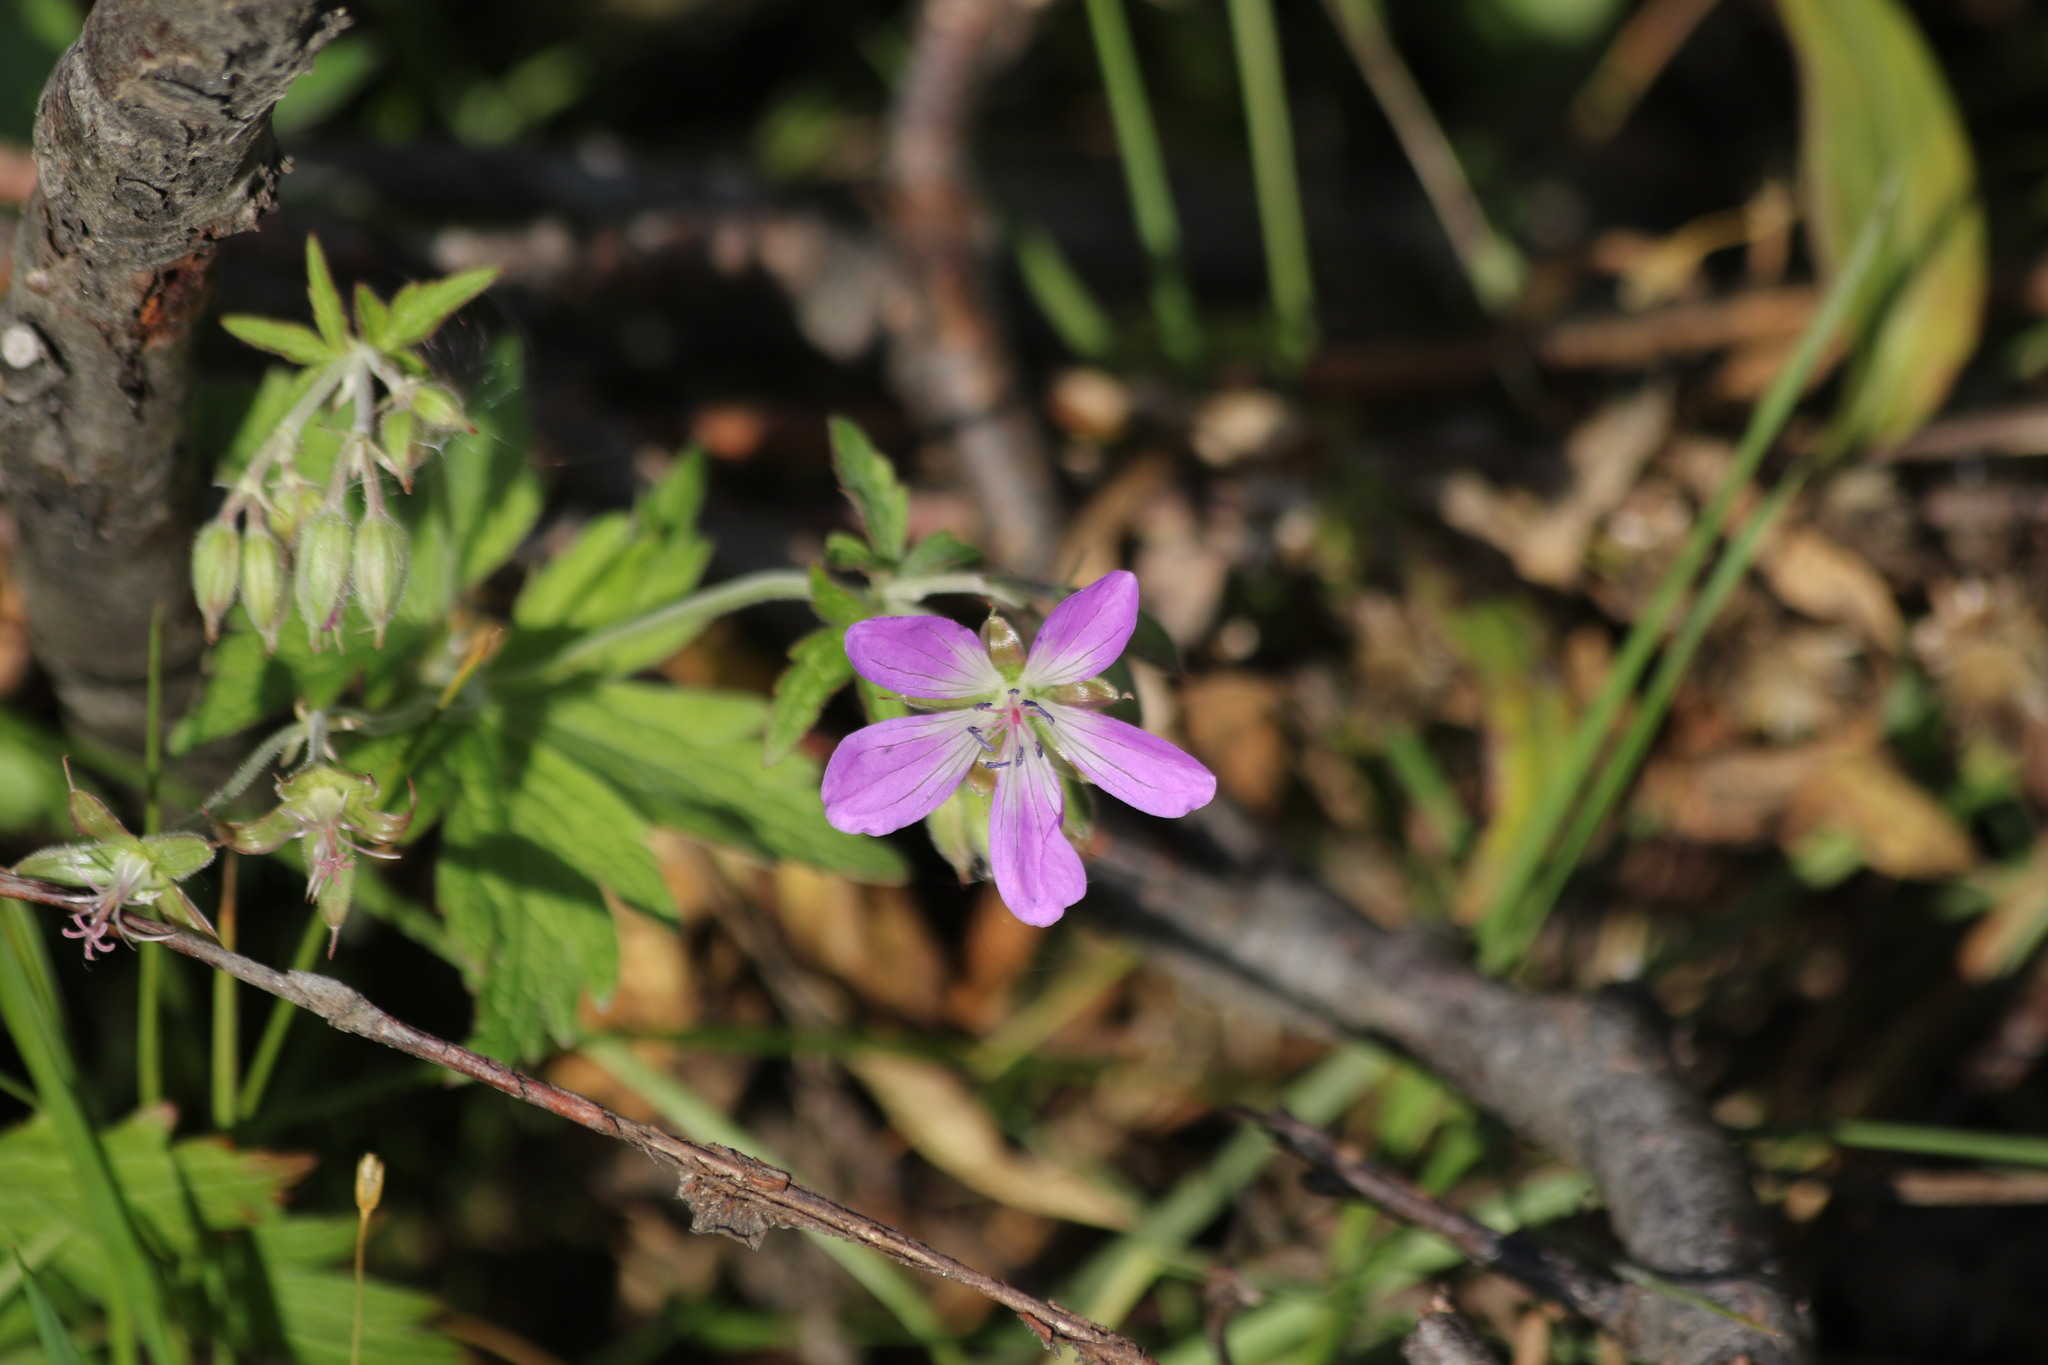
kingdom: Plantae
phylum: Tracheophyta
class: Magnoliopsida
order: Geraniales
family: Geraniaceae
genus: Geranium
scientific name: Geranium sylvaticum
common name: Wood crane's-bill
